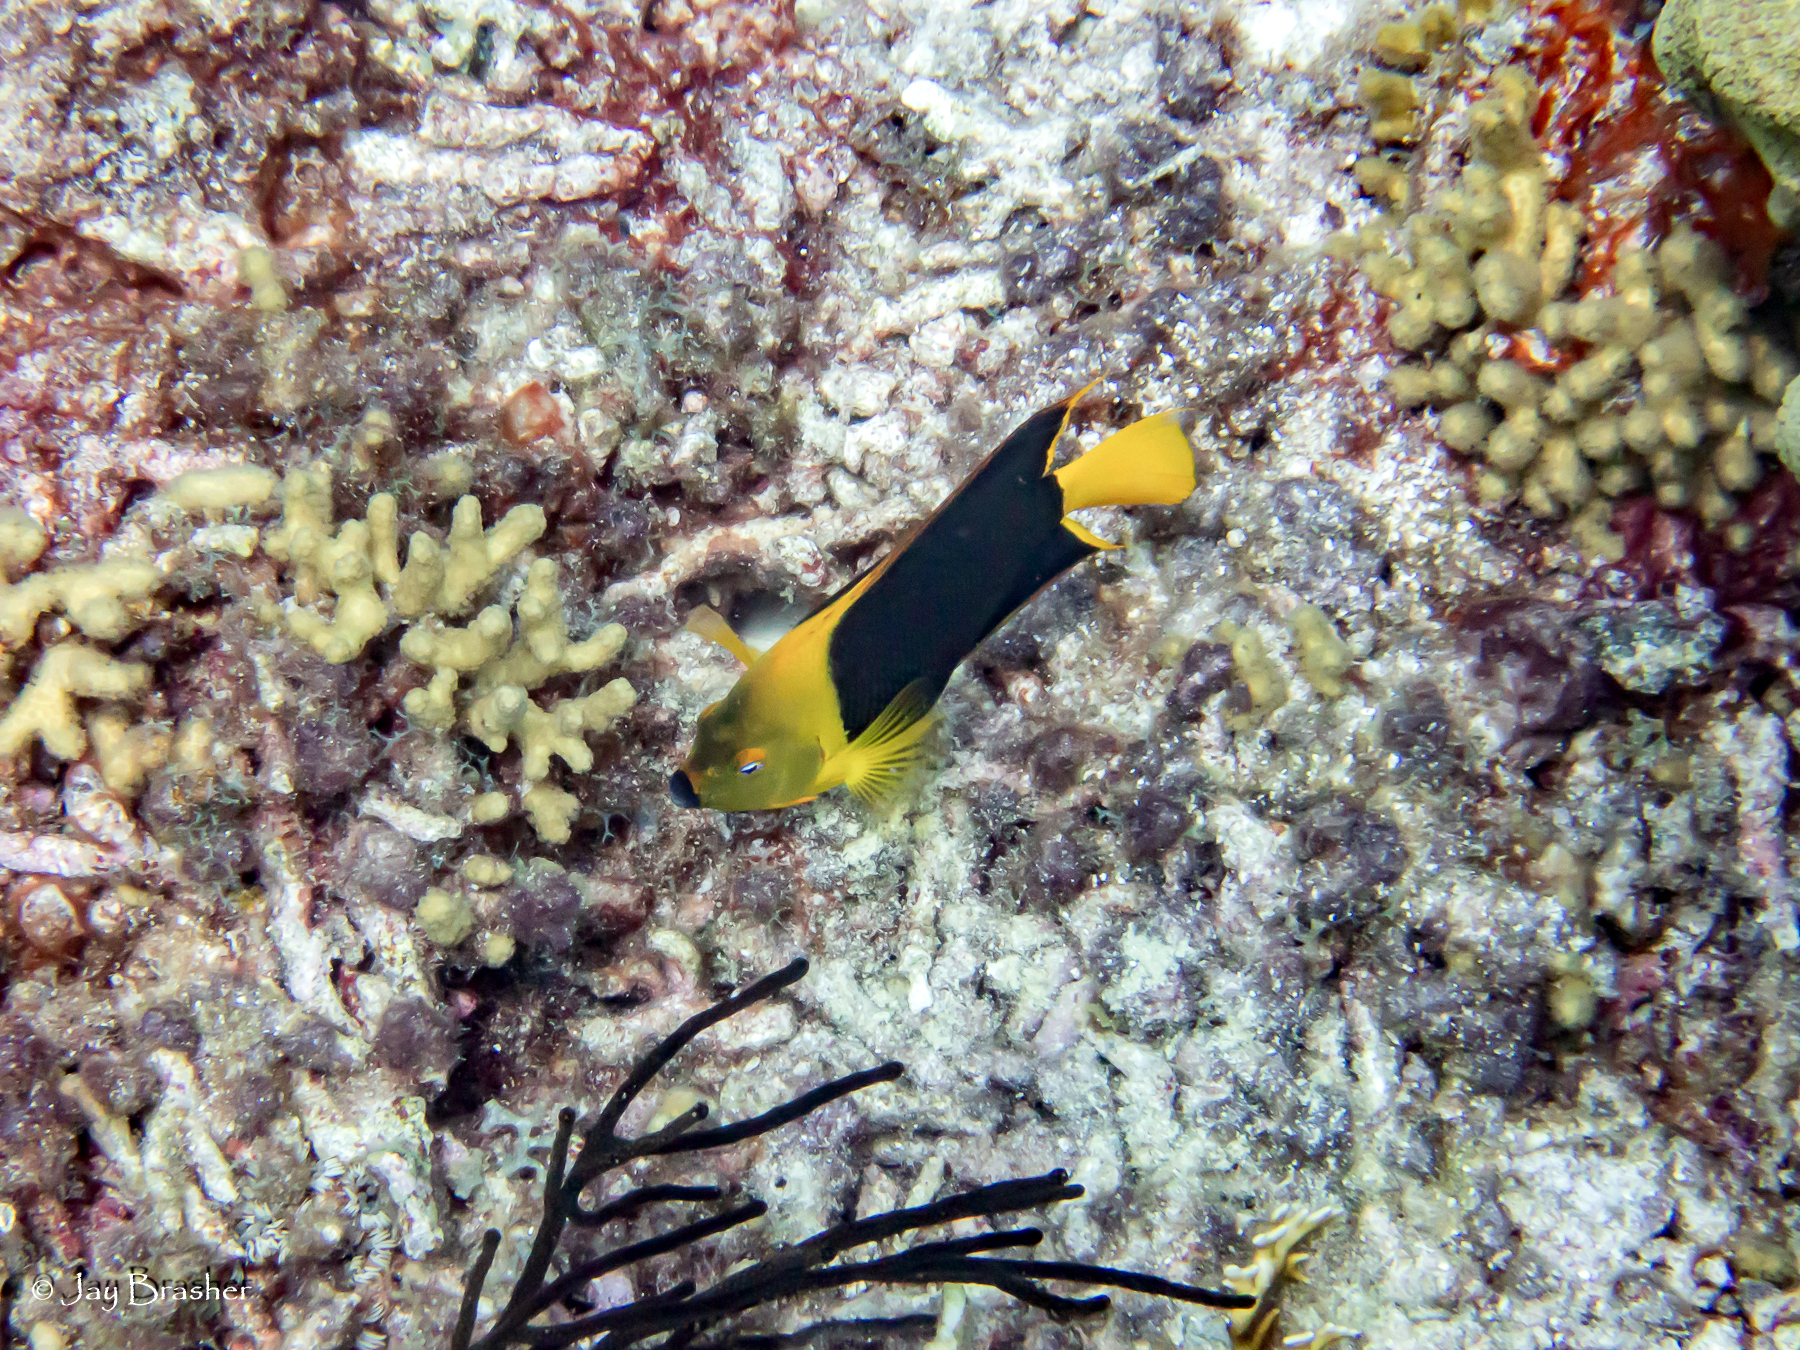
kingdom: Animalia
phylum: Chordata
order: Perciformes
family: Pomacanthidae
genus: Holacanthus
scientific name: Holacanthus tricolor
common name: Rock beauty
